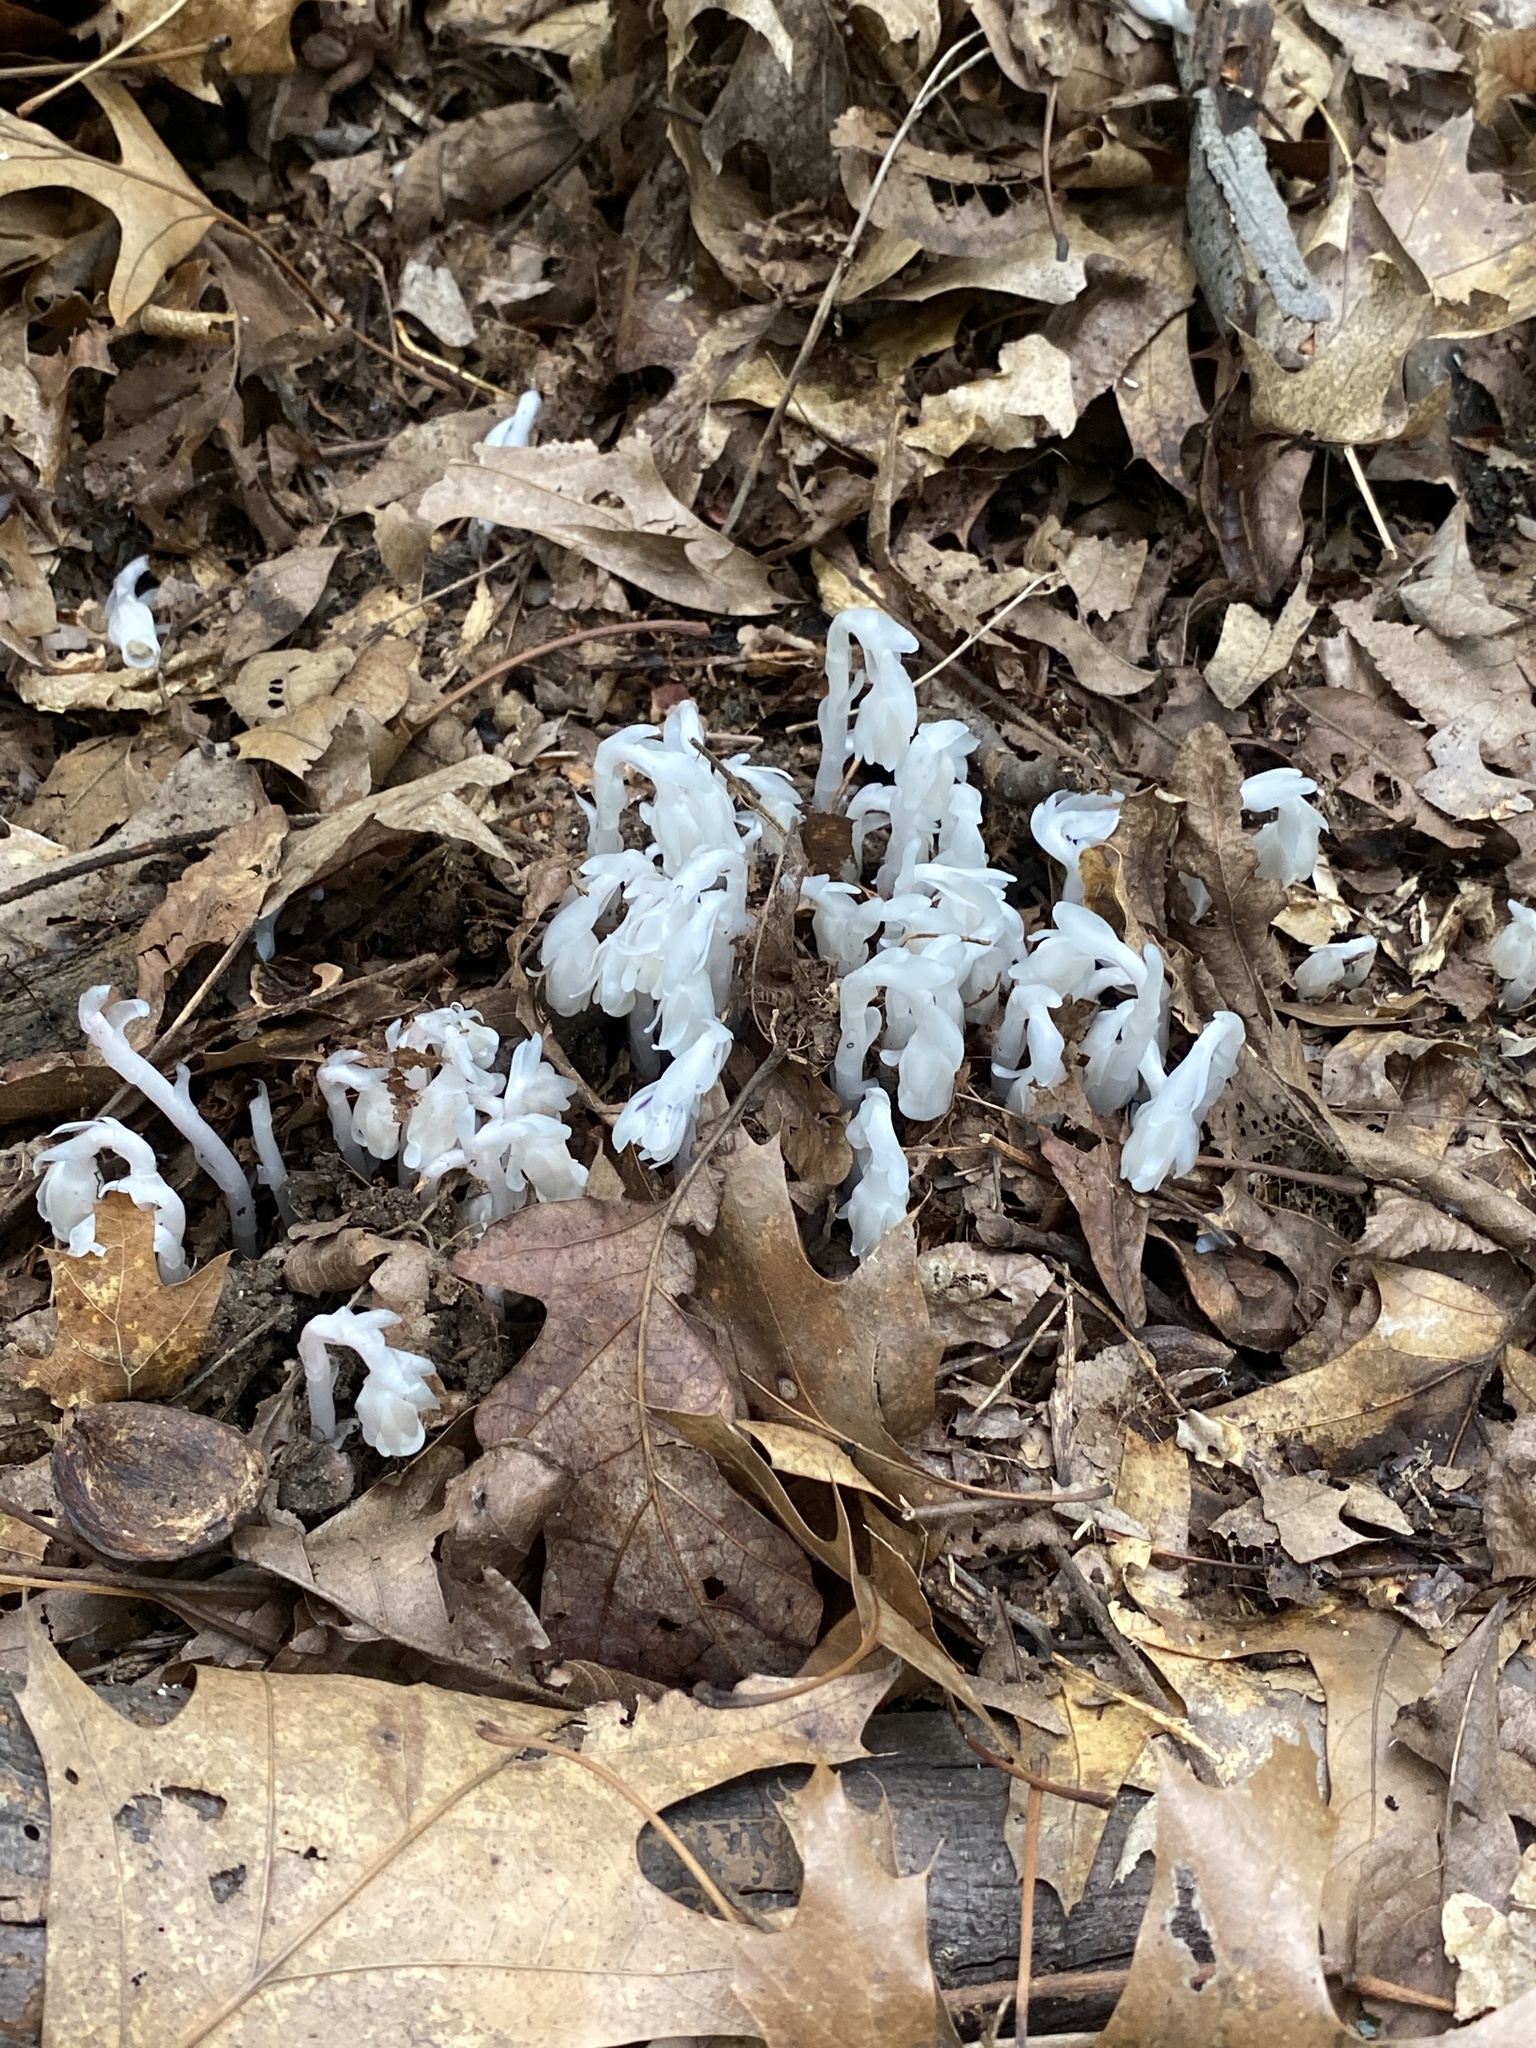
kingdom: Plantae
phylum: Tracheophyta
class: Magnoliopsida
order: Ericales
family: Ericaceae
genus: Monotropa
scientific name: Monotropa uniflora
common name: Convulsion root
